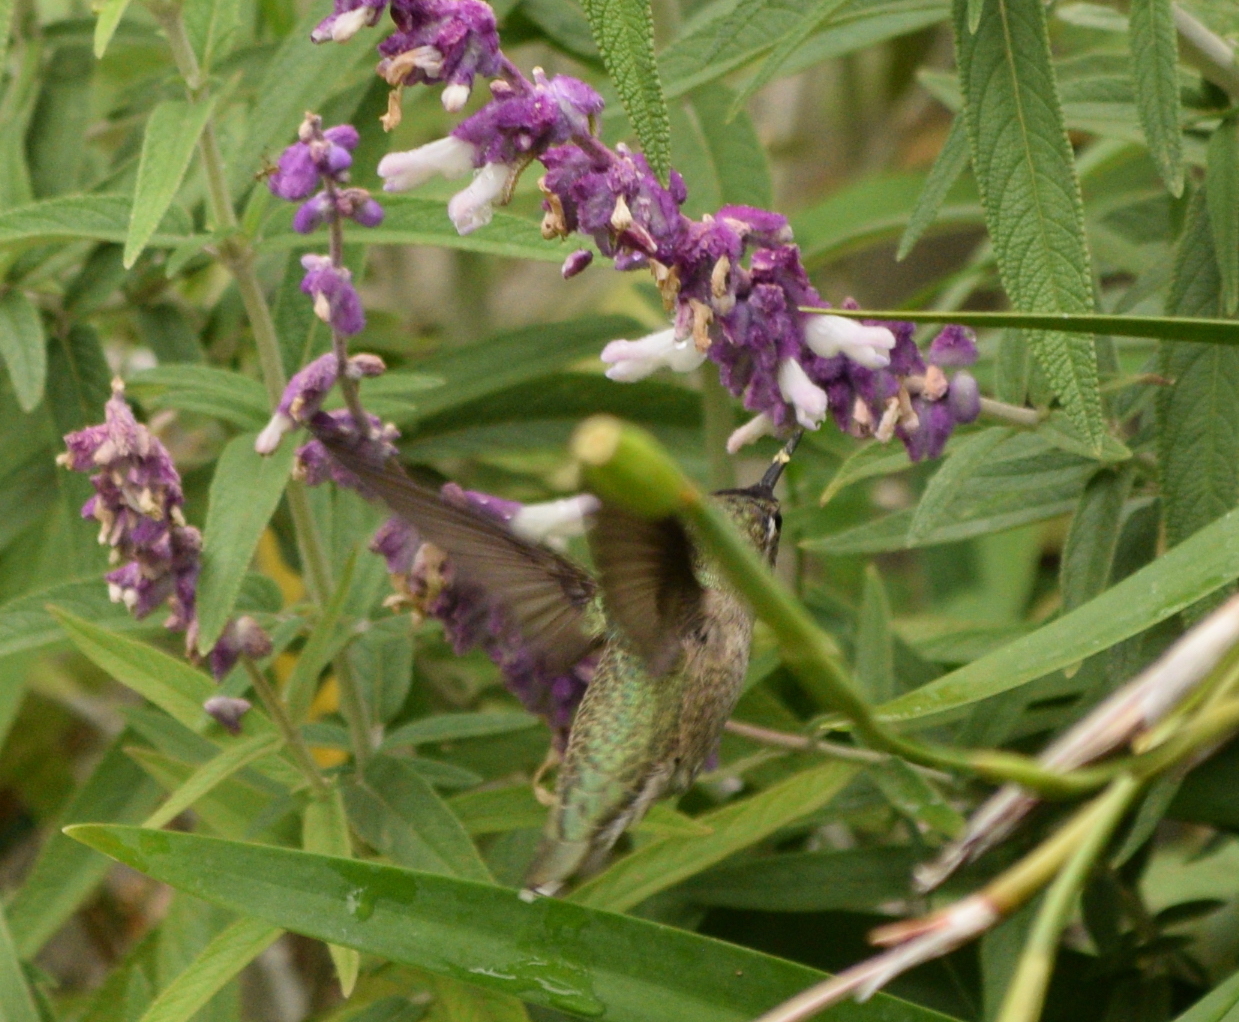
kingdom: Animalia
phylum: Chordata
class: Aves
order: Apodiformes
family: Trochilidae
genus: Calypte
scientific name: Calypte anna
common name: Anna's hummingbird
